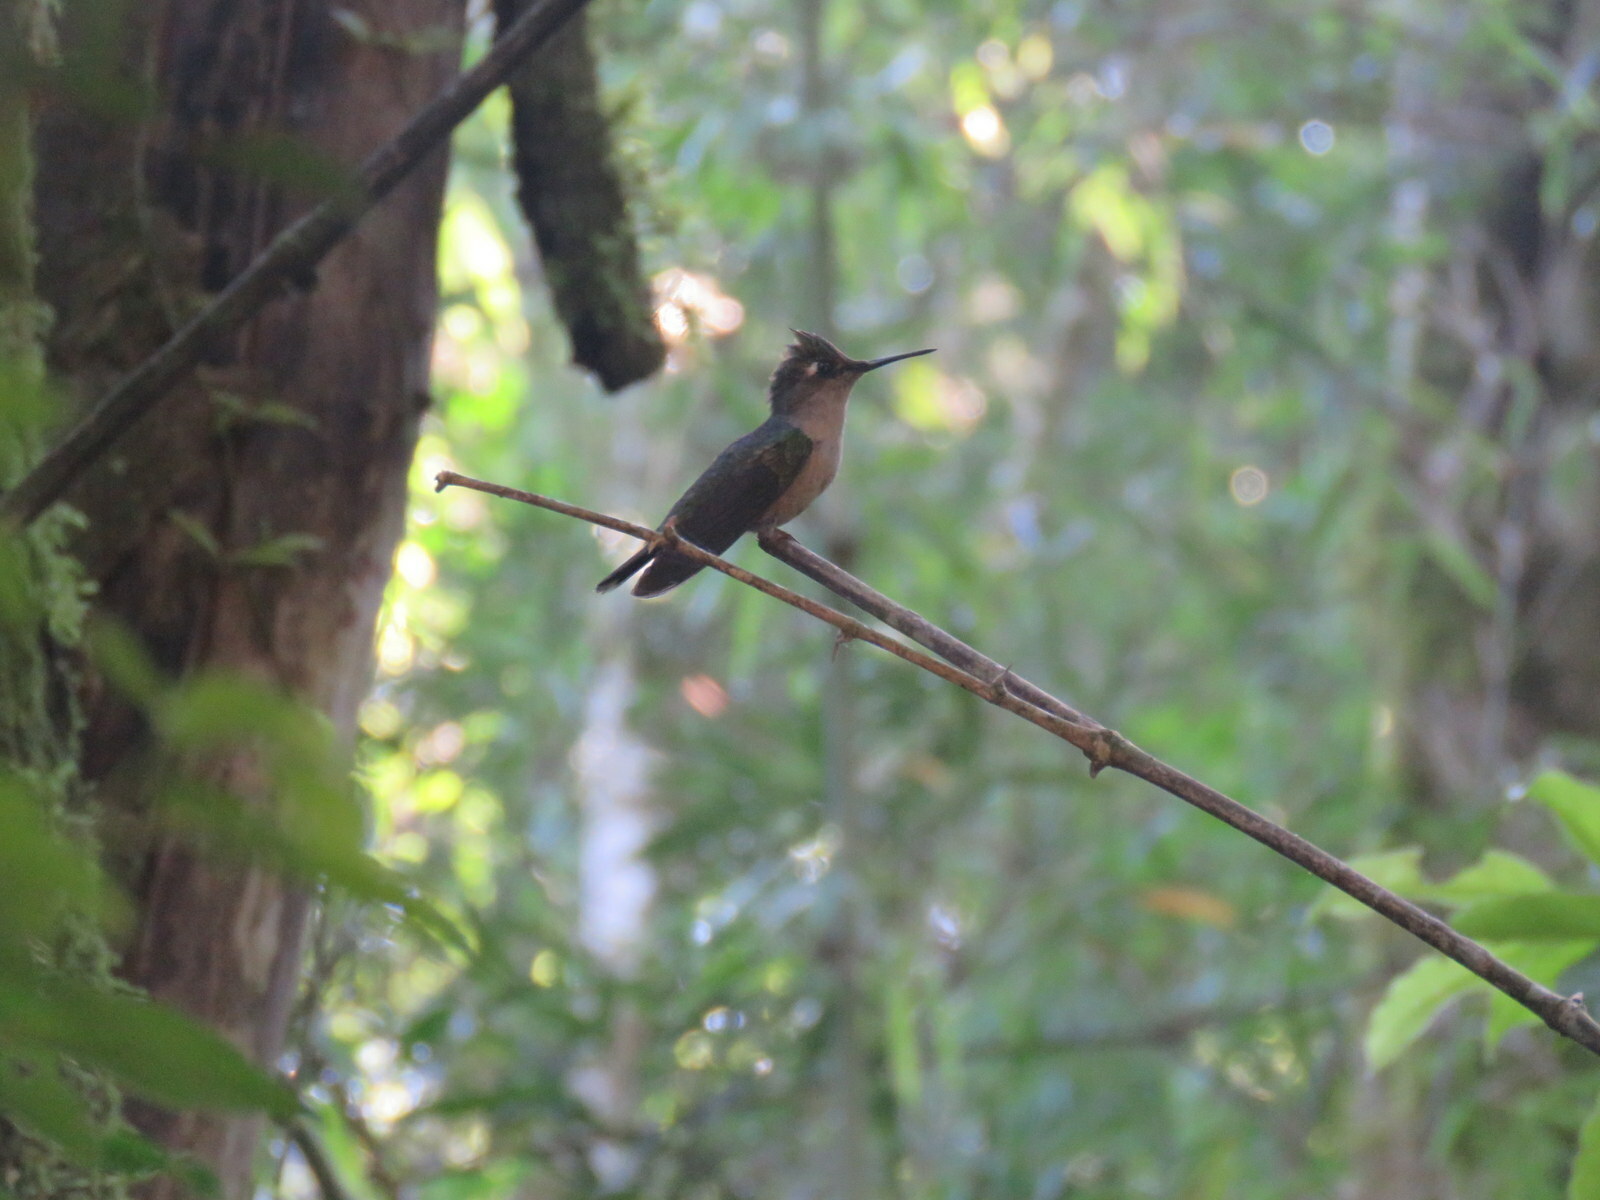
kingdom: Animalia
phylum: Chordata
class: Aves
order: Apodiformes
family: Trochilidae
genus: Stephanoxis
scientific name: Stephanoxis loddigesii
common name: Purple-crowned plovercrest
